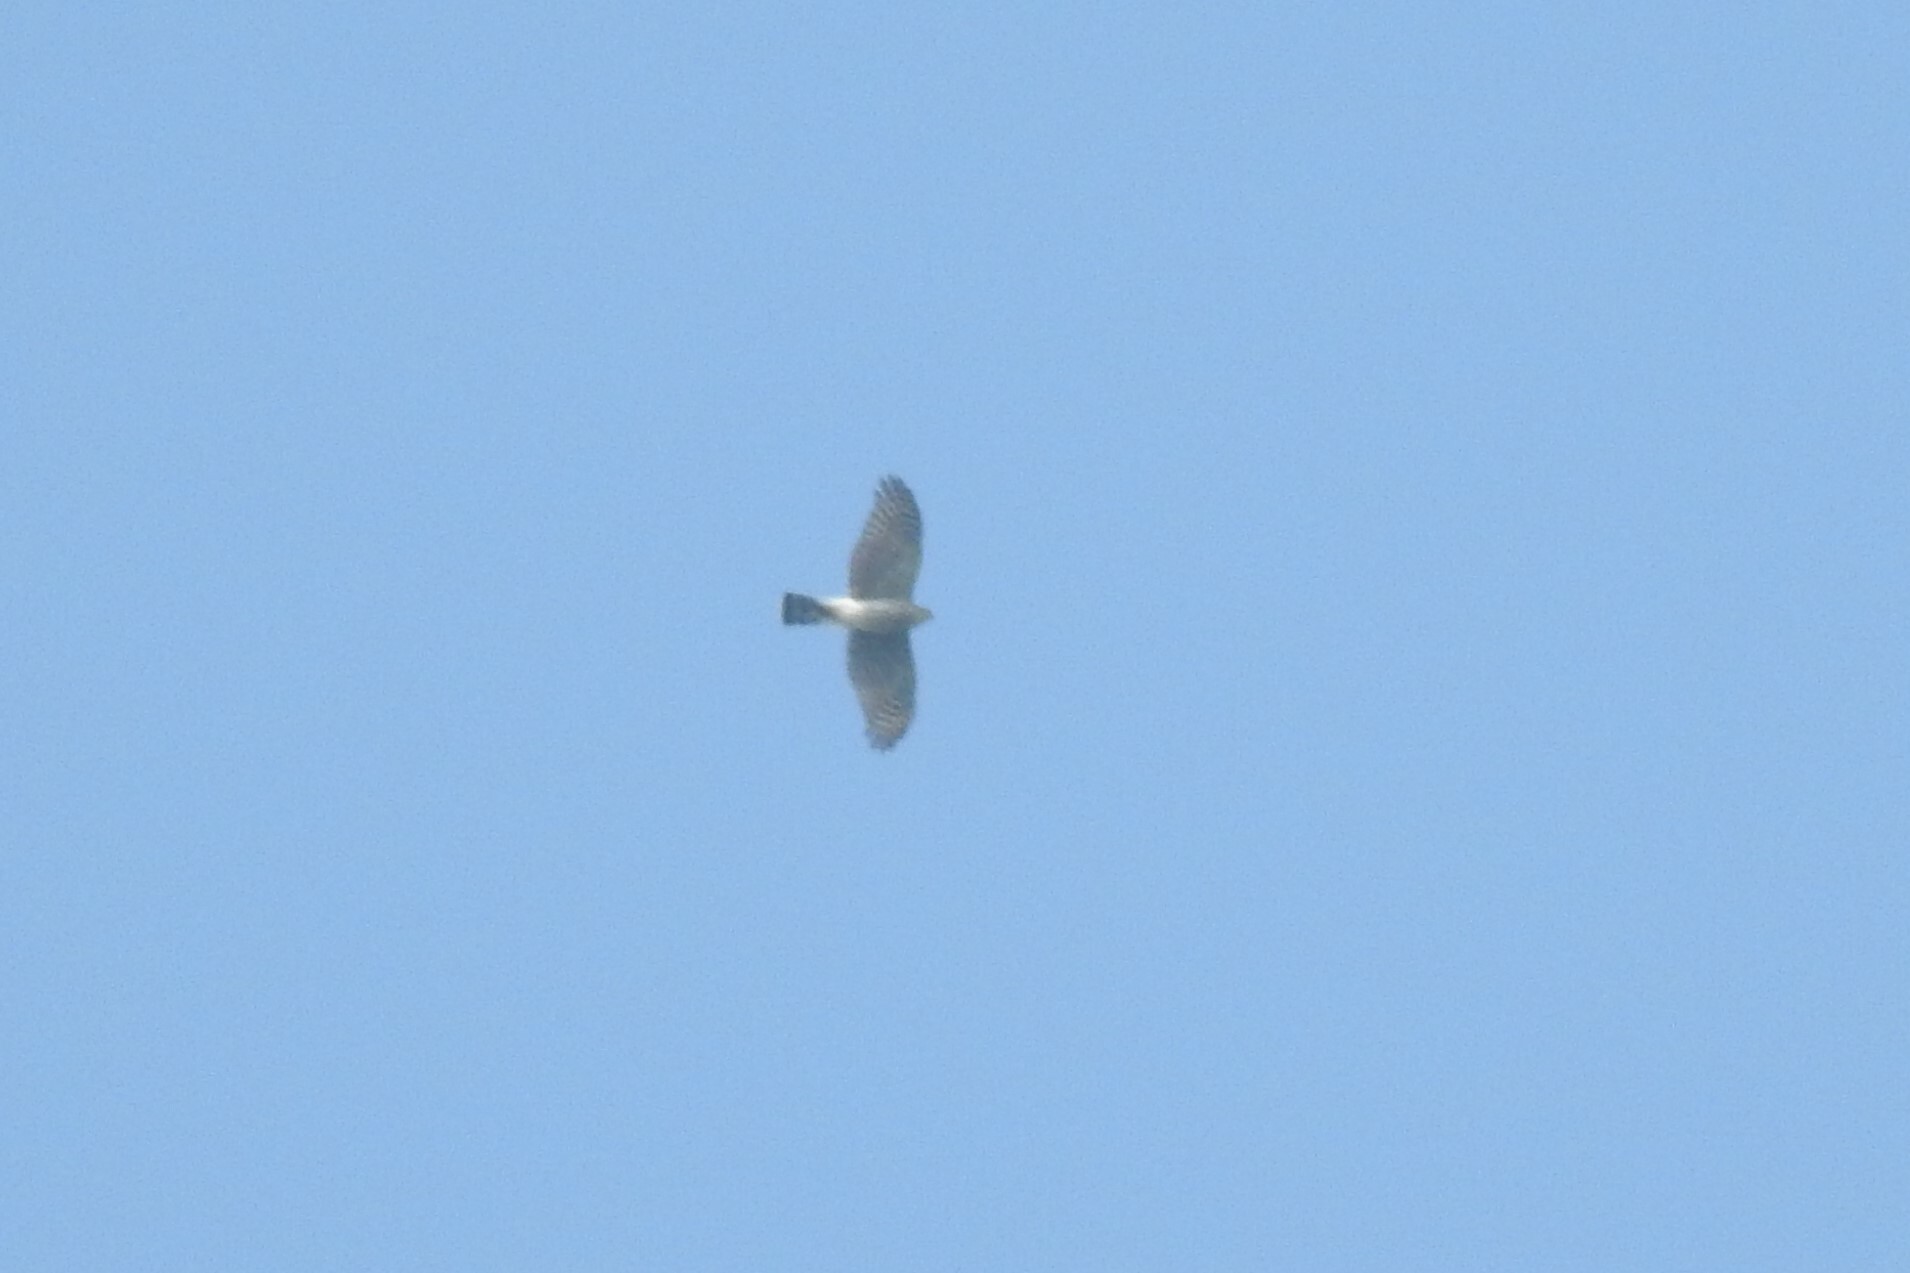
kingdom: Animalia
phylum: Chordata
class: Aves
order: Accipitriformes
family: Accipitridae
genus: Accipiter
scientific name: Accipiter striatus
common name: Sharp-shinned hawk
